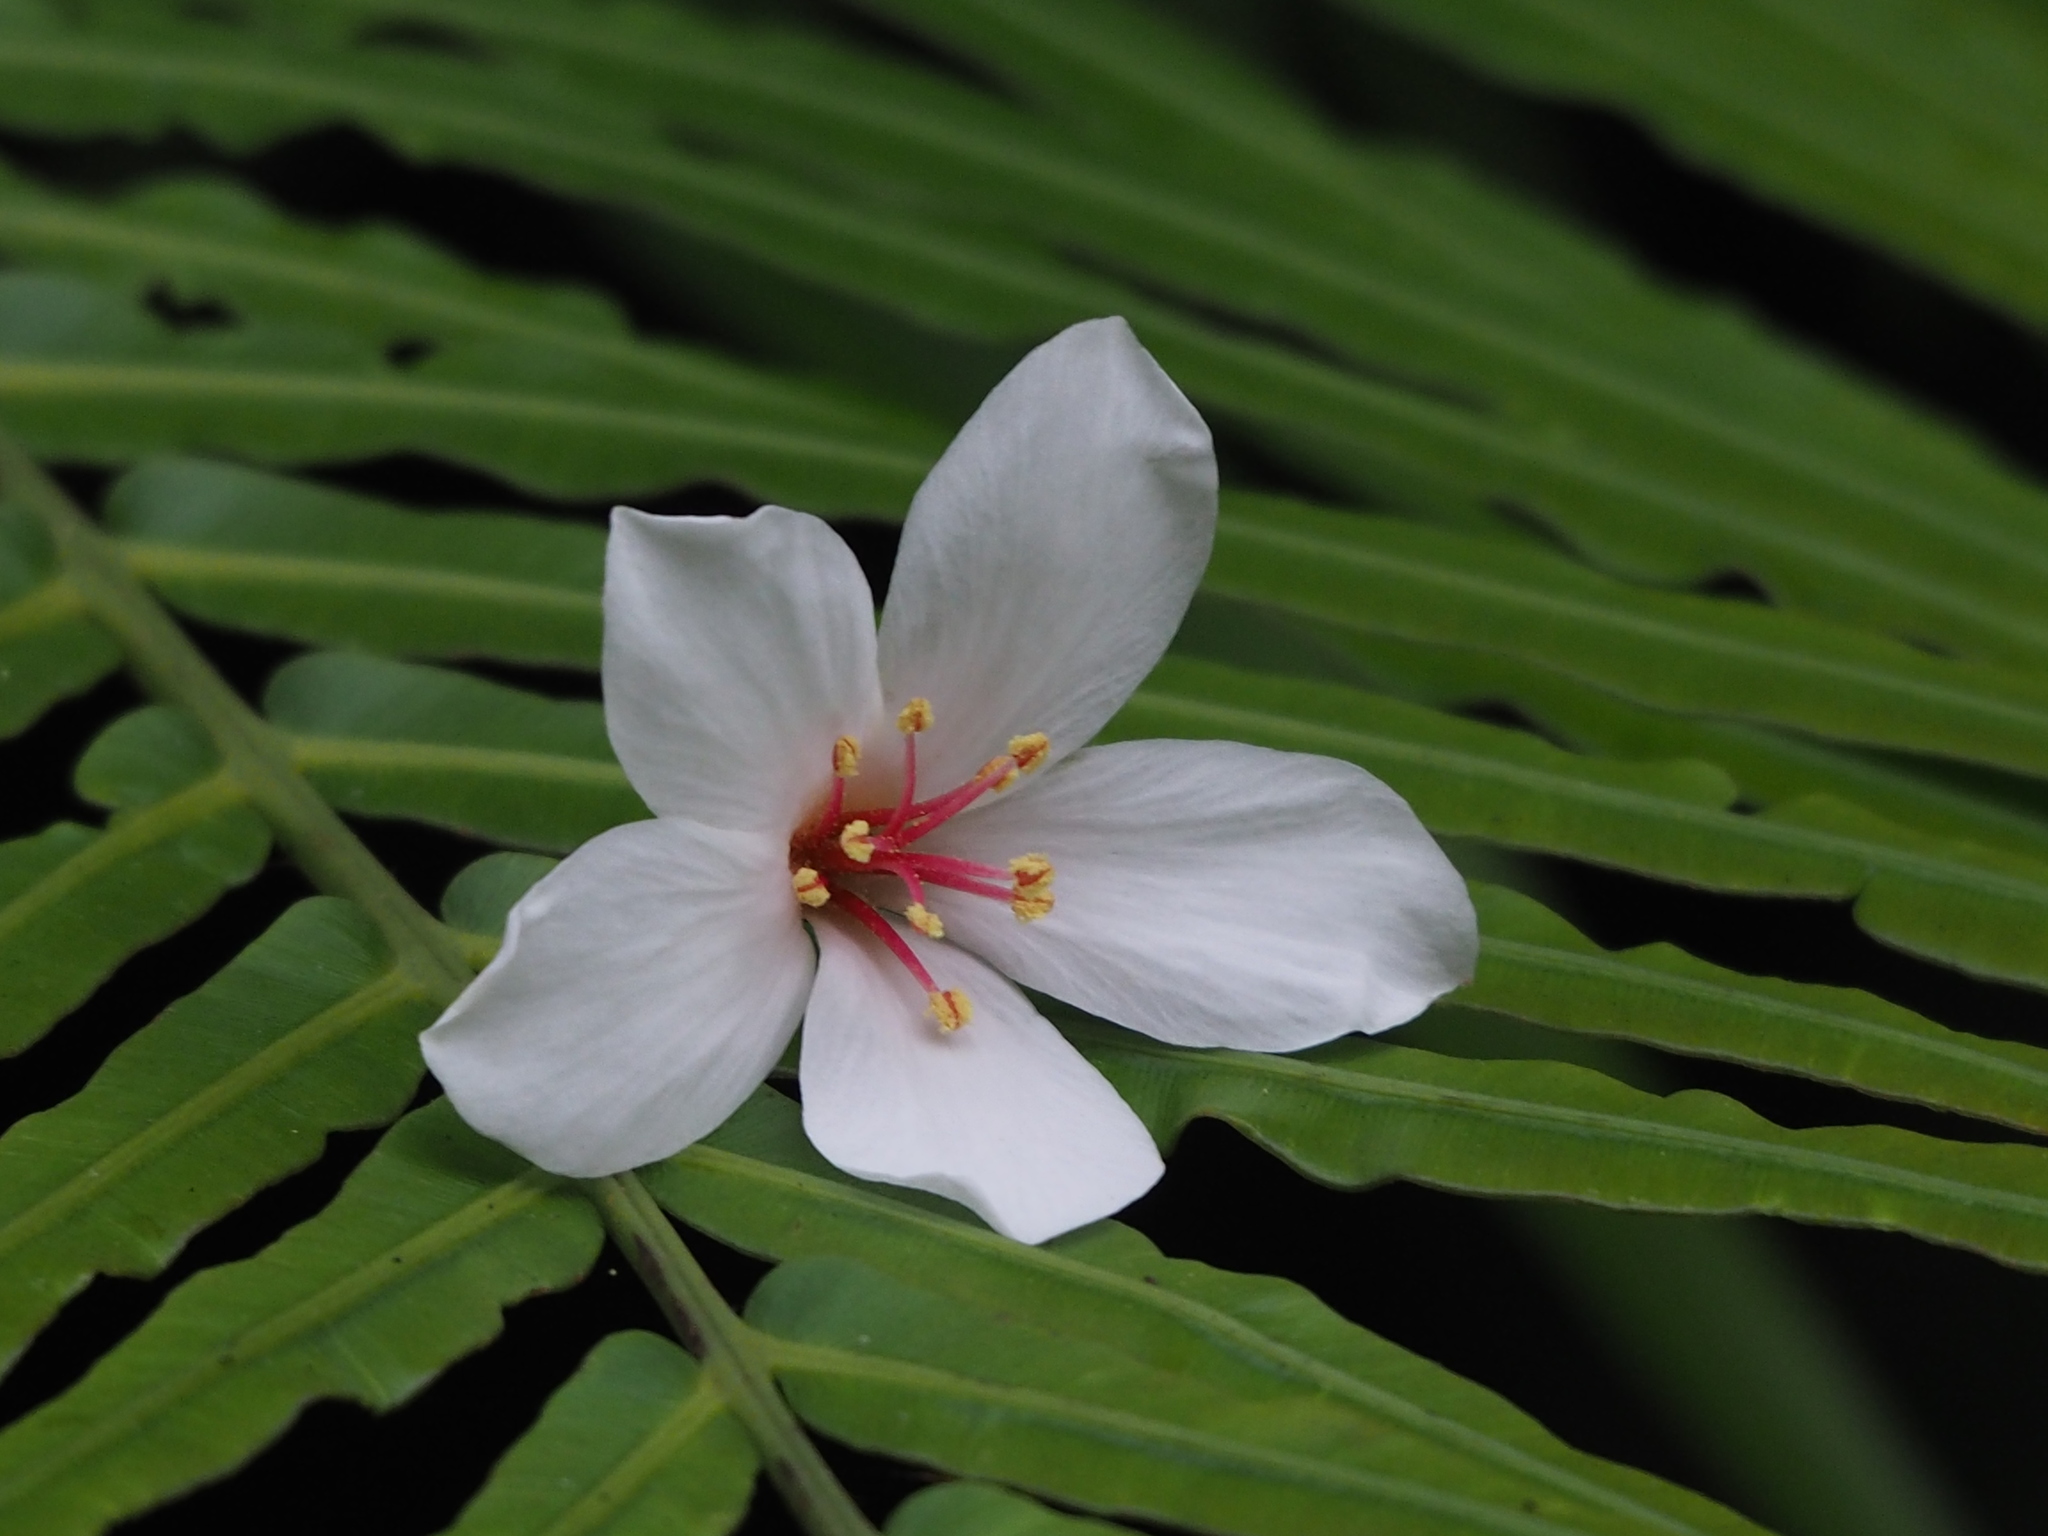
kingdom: Plantae
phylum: Tracheophyta
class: Magnoliopsida
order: Malpighiales
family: Euphorbiaceae
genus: Vernicia
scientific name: Vernicia montana
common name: Mu oil tree
